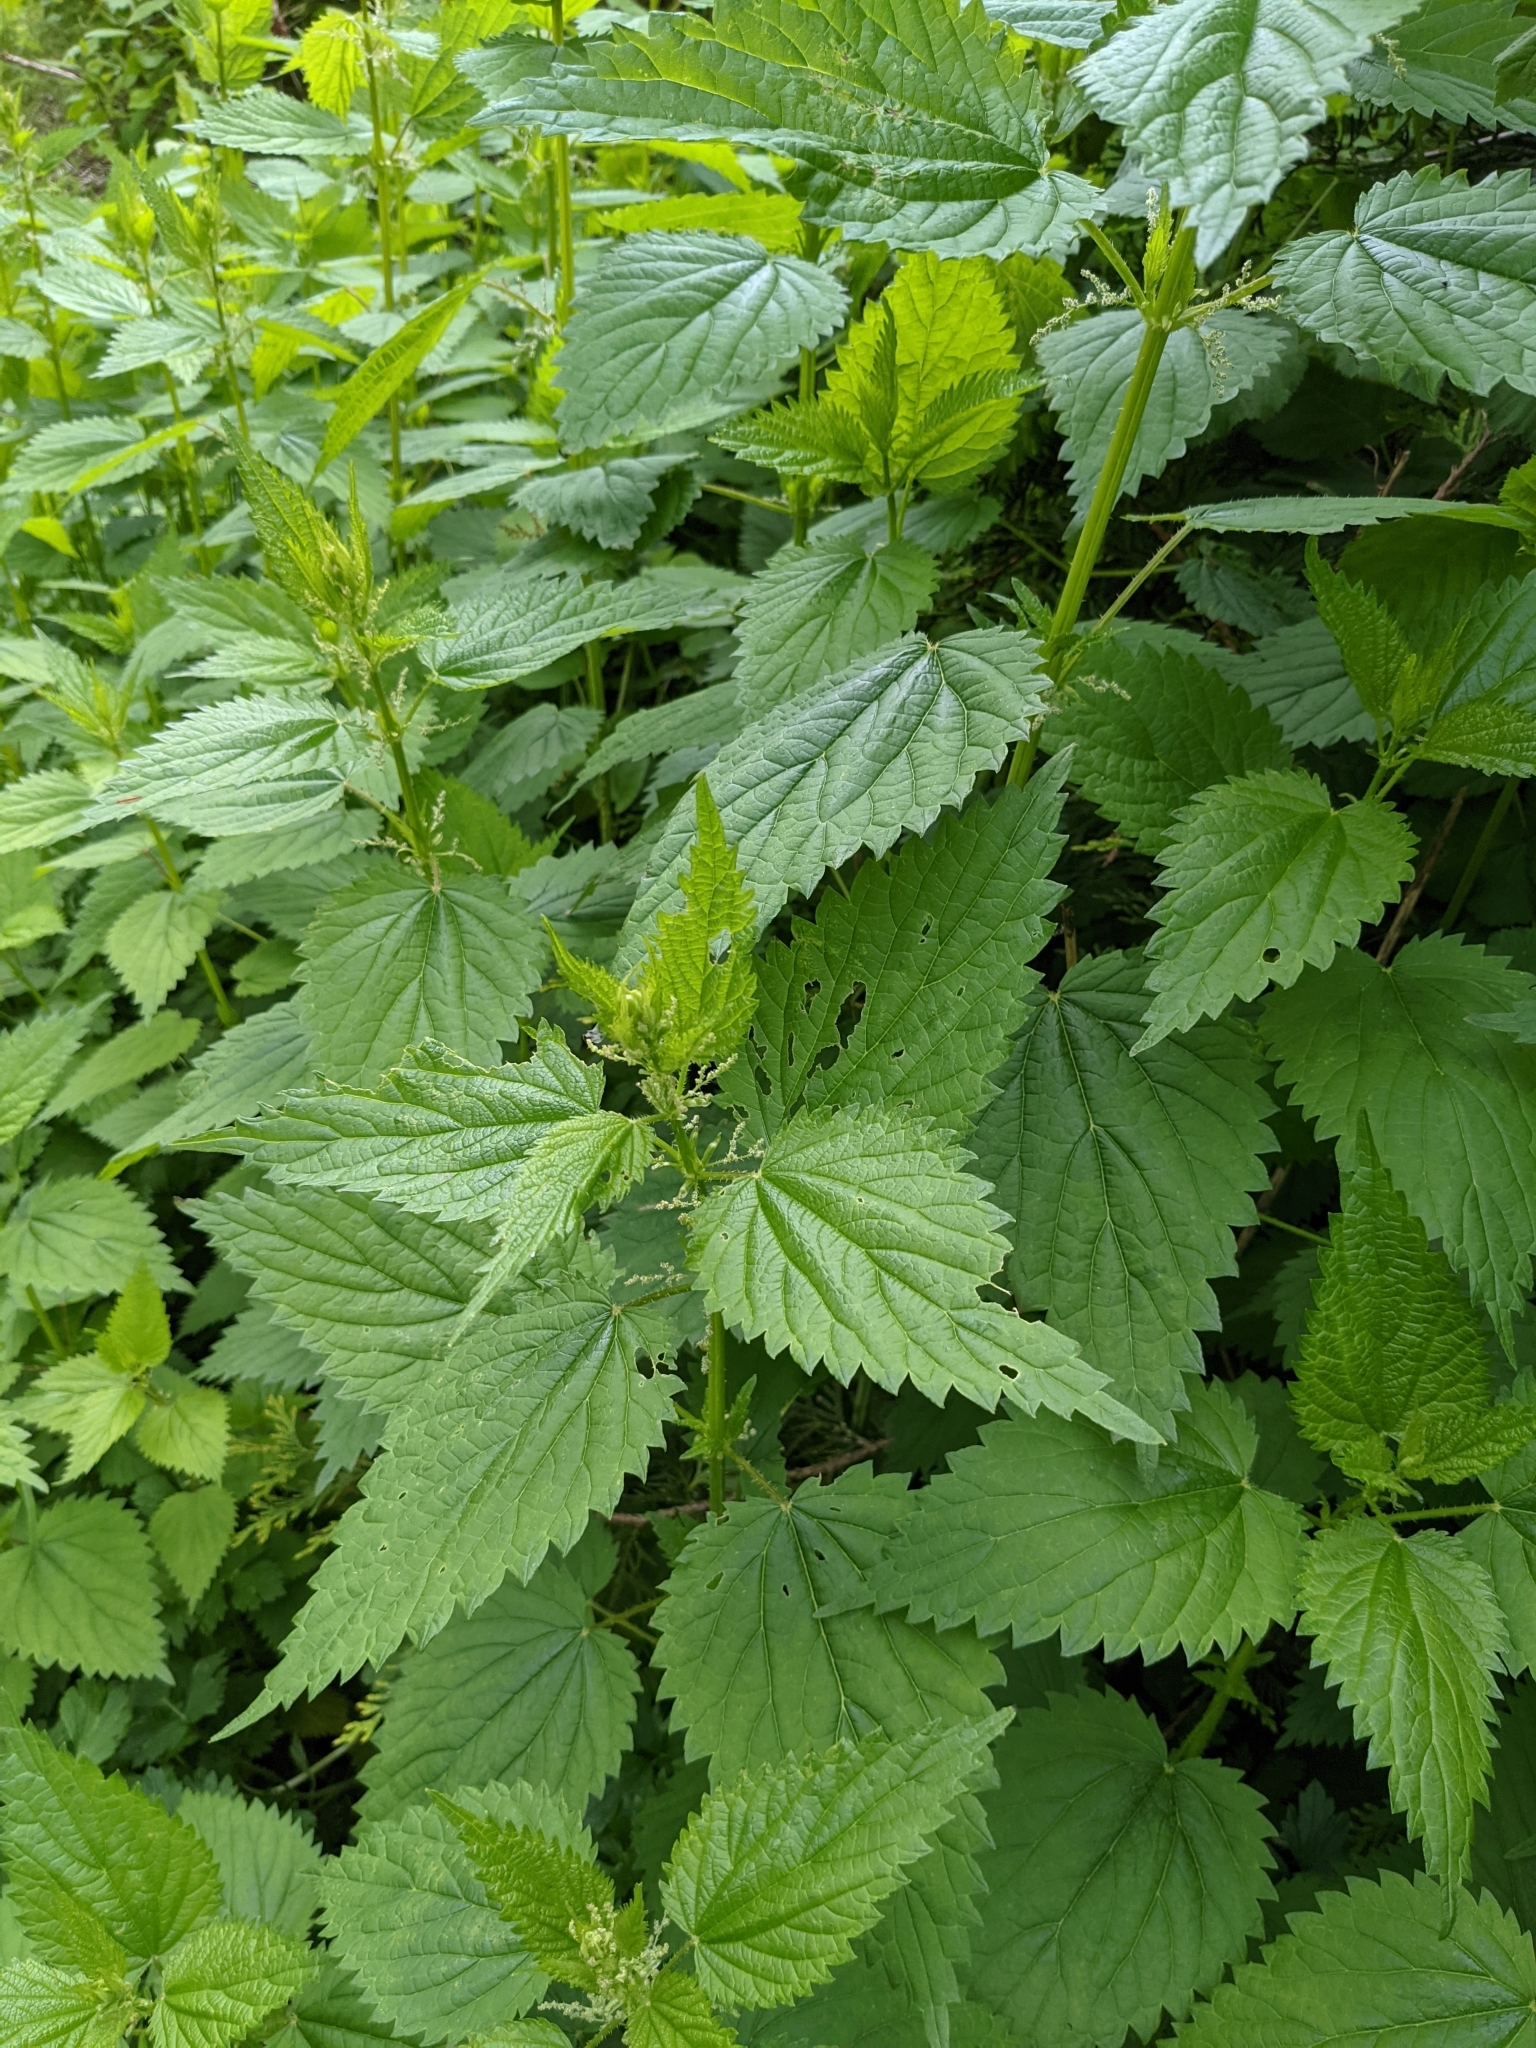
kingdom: Plantae
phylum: Tracheophyta
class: Magnoliopsida
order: Rosales
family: Urticaceae
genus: Urtica
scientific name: Urtica dioica
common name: Common nettle
